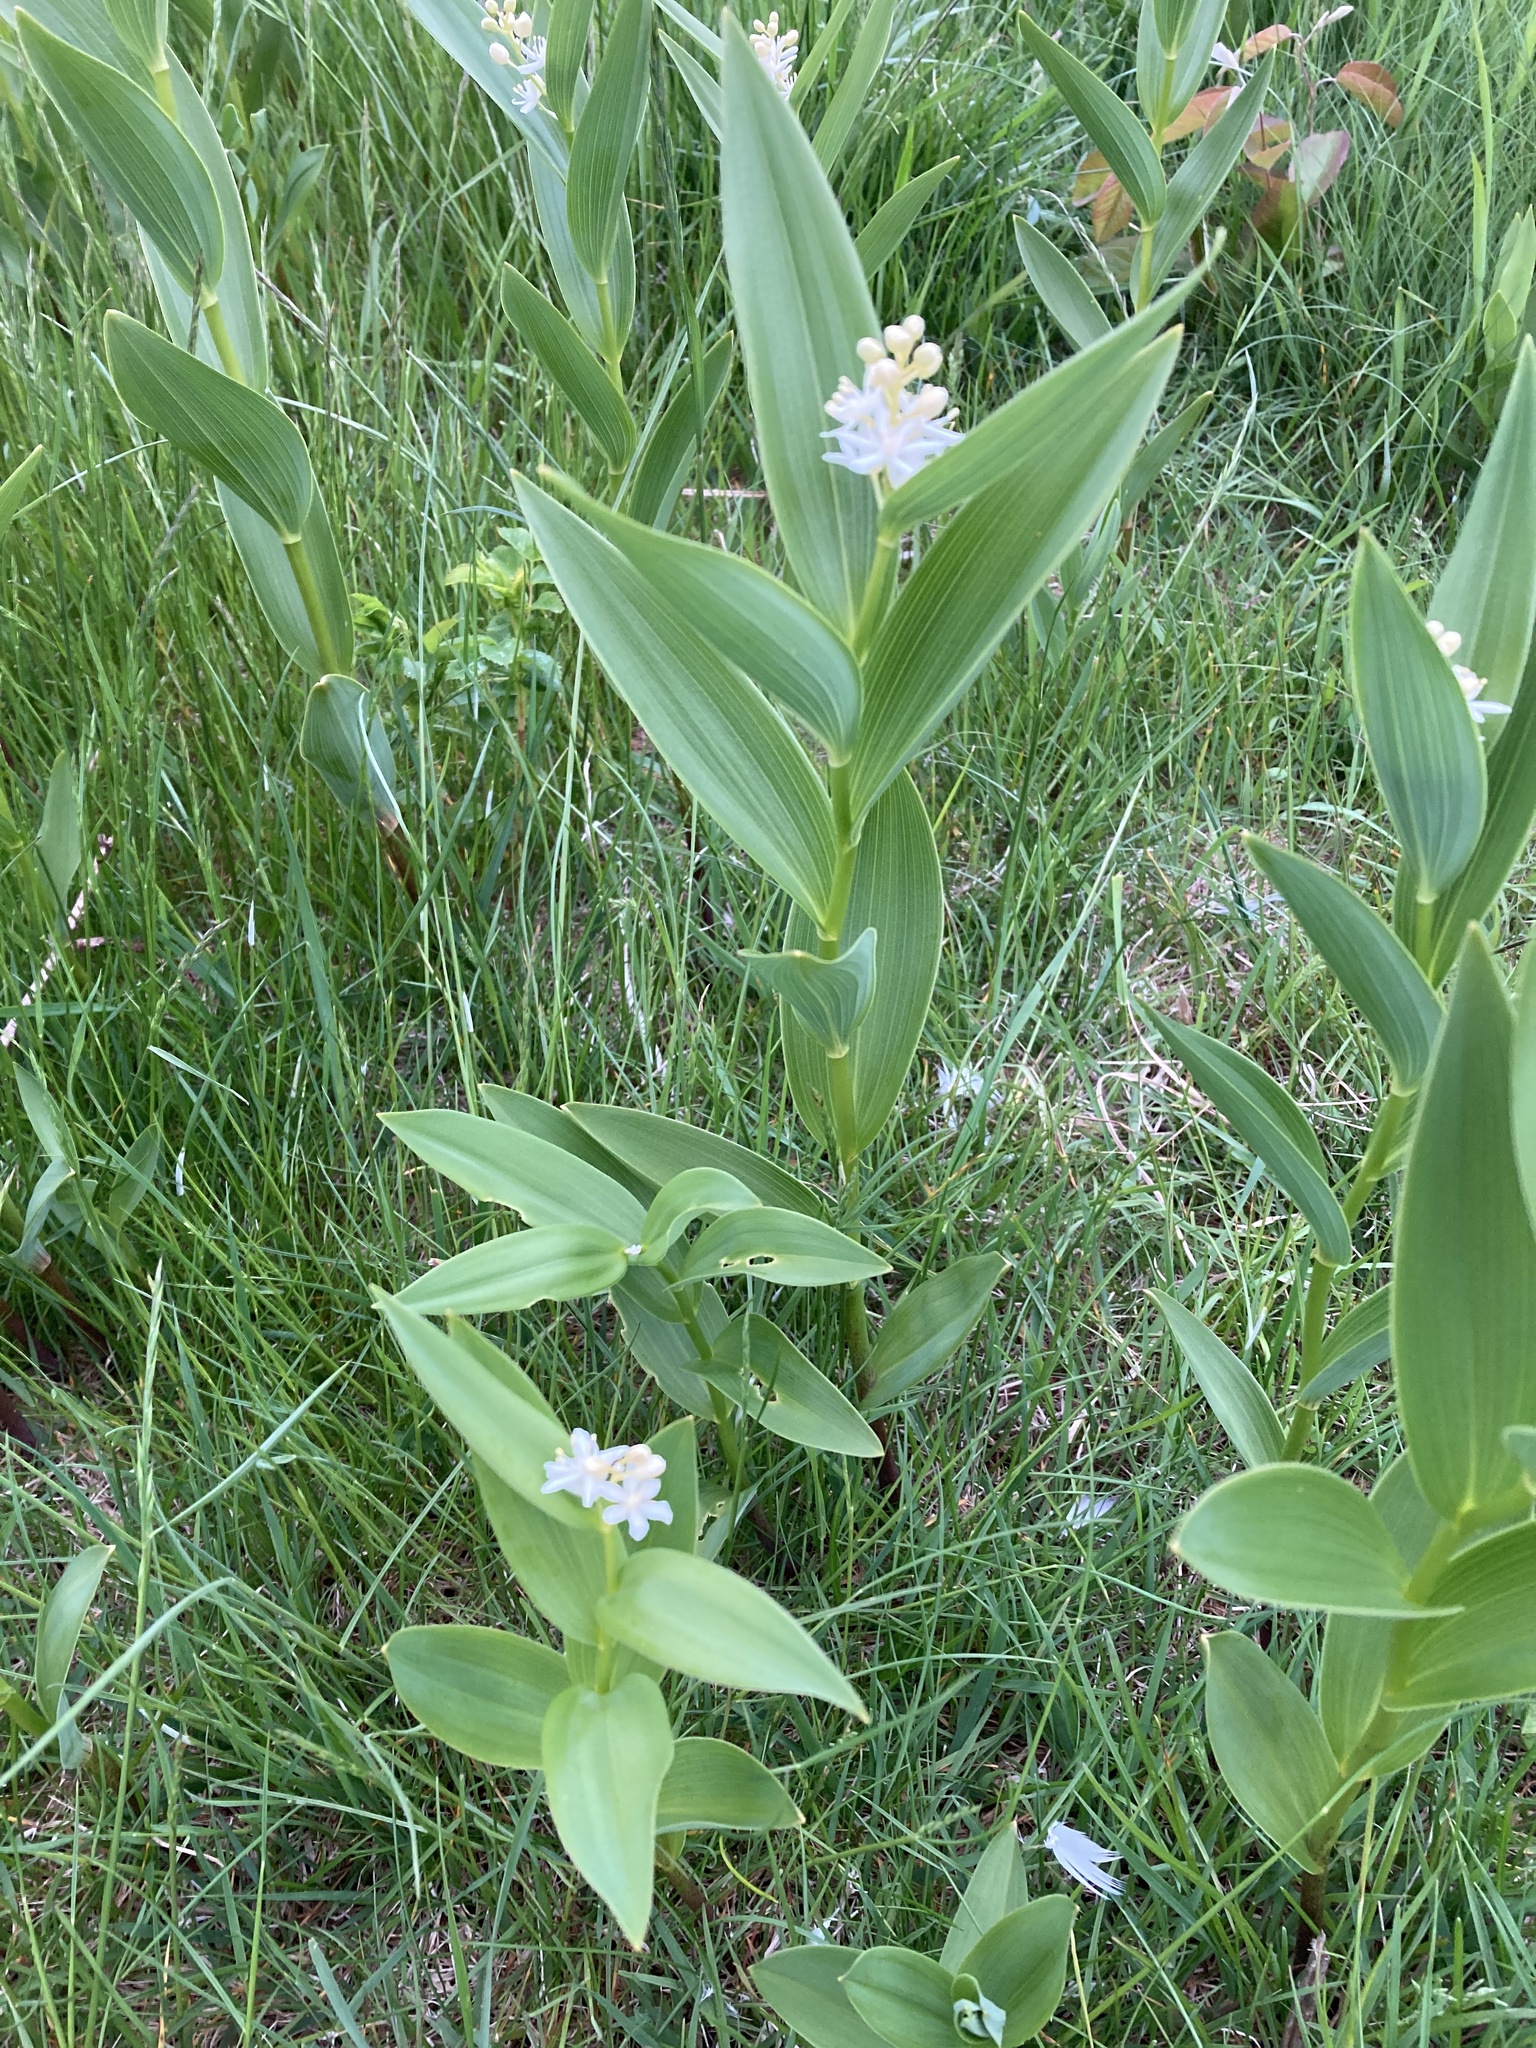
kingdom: Plantae
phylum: Tracheophyta
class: Liliopsida
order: Asparagales
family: Asparagaceae
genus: Maianthemum
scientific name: Maianthemum stellatum
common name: Little false solomon's seal
